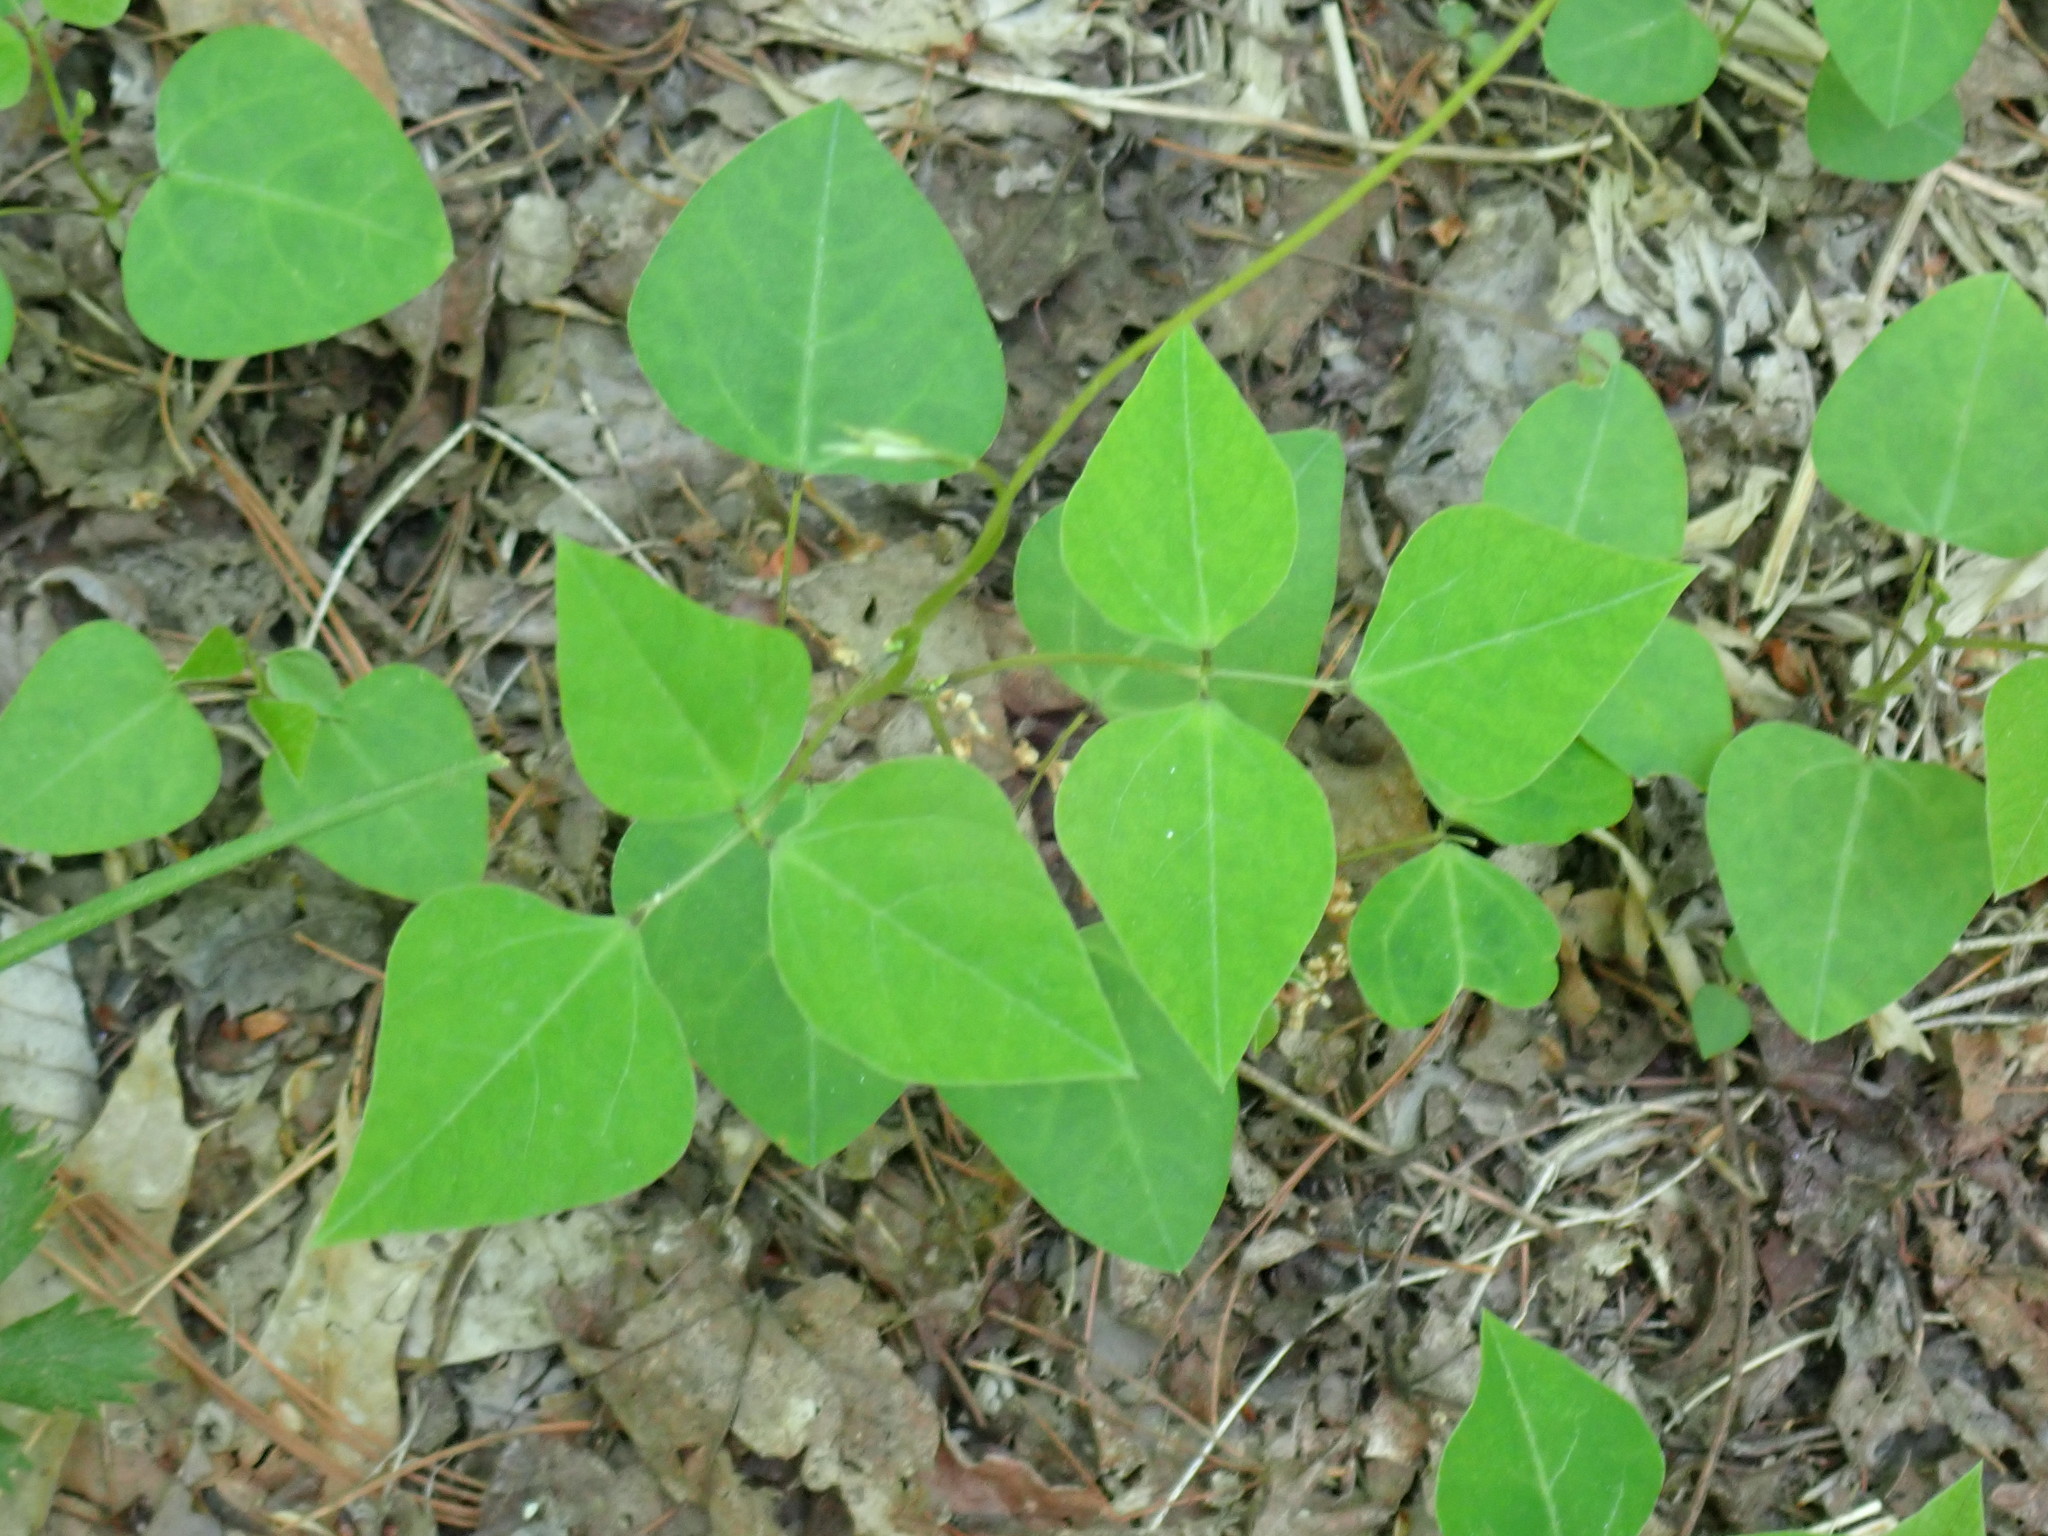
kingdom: Plantae
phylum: Tracheophyta
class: Magnoliopsida
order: Fabales
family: Fabaceae
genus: Amphicarpaea
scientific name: Amphicarpaea bracteata
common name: American hog peanut
